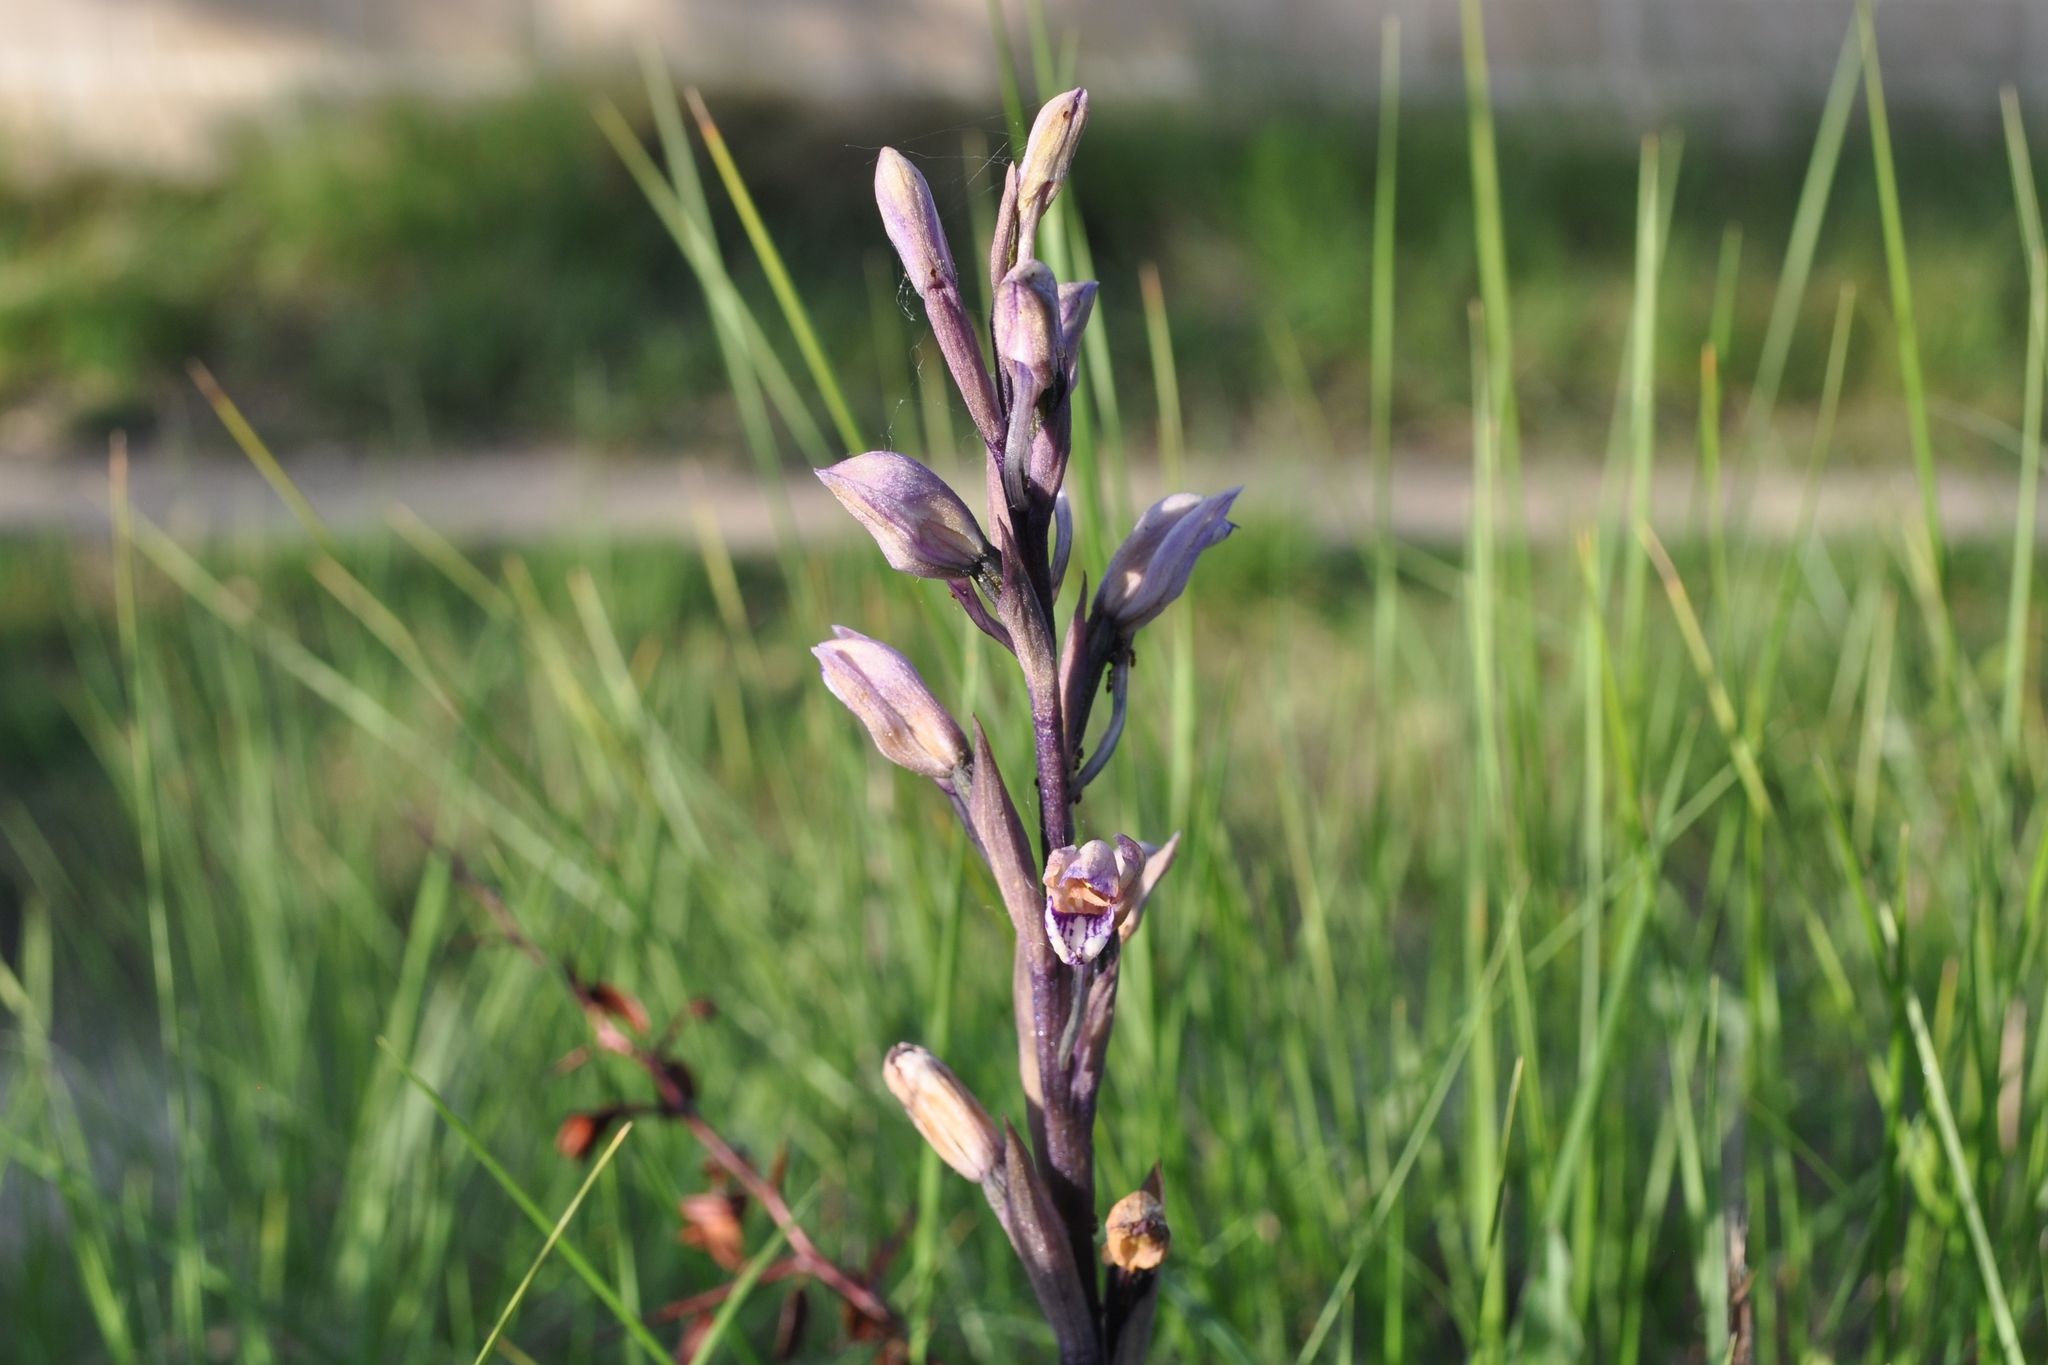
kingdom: Plantae
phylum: Tracheophyta
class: Liliopsida
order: Asparagales
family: Orchidaceae
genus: Limodorum
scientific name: Limodorum abortivum
